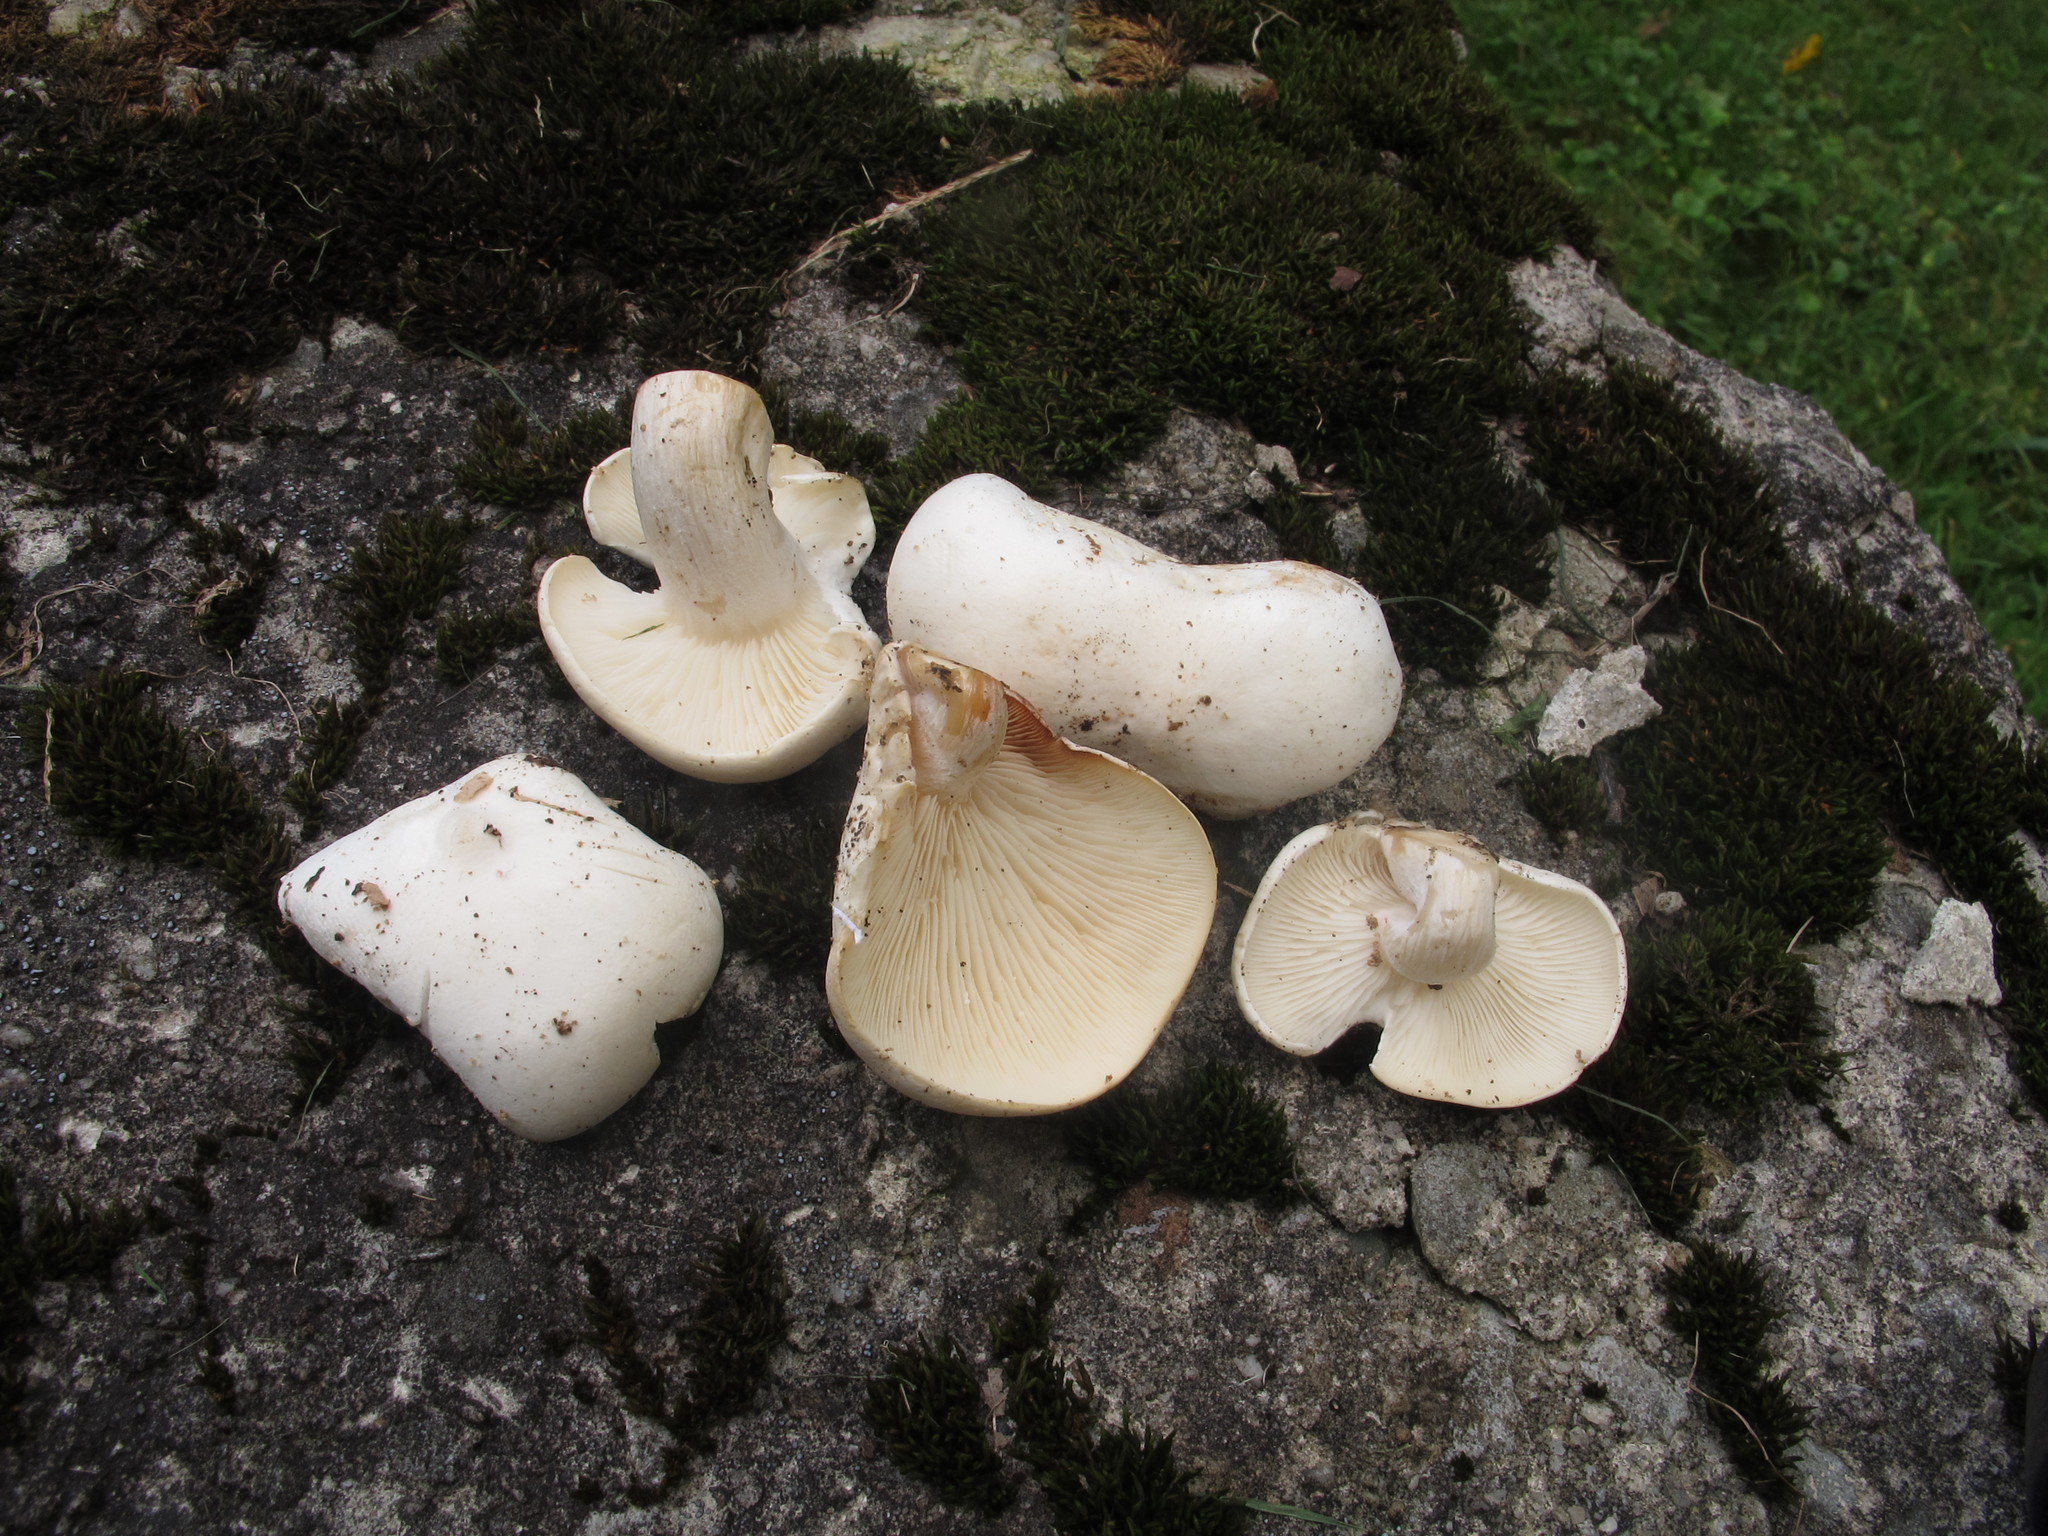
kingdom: Fungi
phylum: Basidiomycota
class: Agaricomycetes
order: Agaricales
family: Lyophyllaceae
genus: Ossicaulis
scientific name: Ossicaulis lignatilis
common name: Mealy oyster
